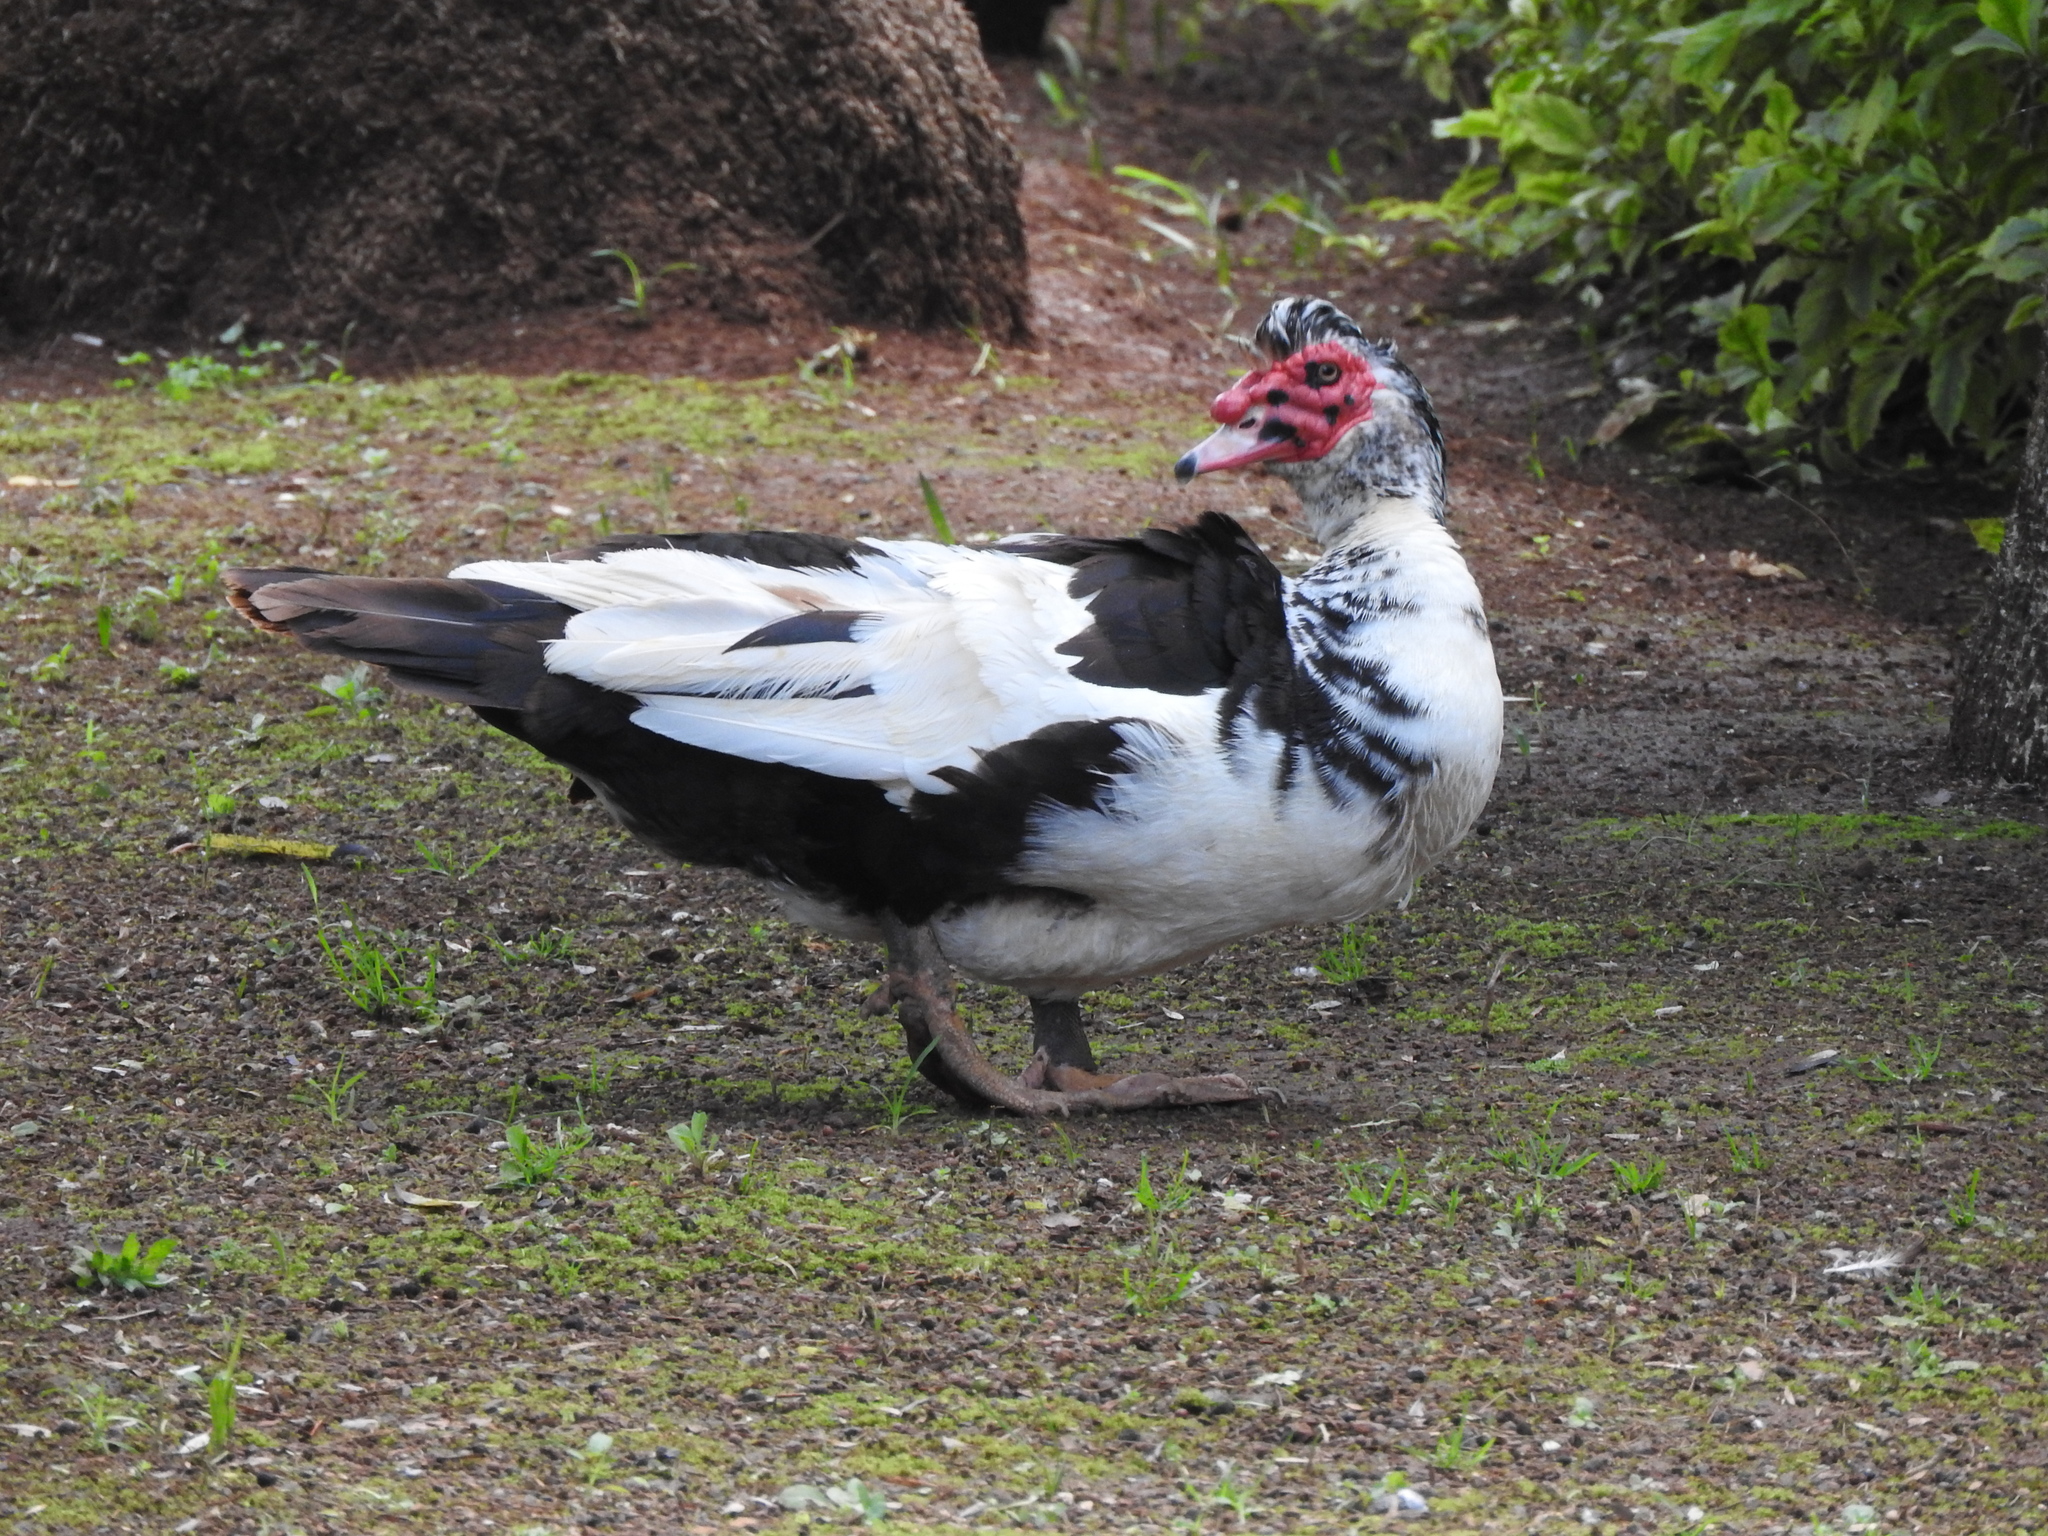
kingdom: Animalia
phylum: Chordata
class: Aves
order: Anseriformes
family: Anatidae
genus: Cairina
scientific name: Cairina moschata
